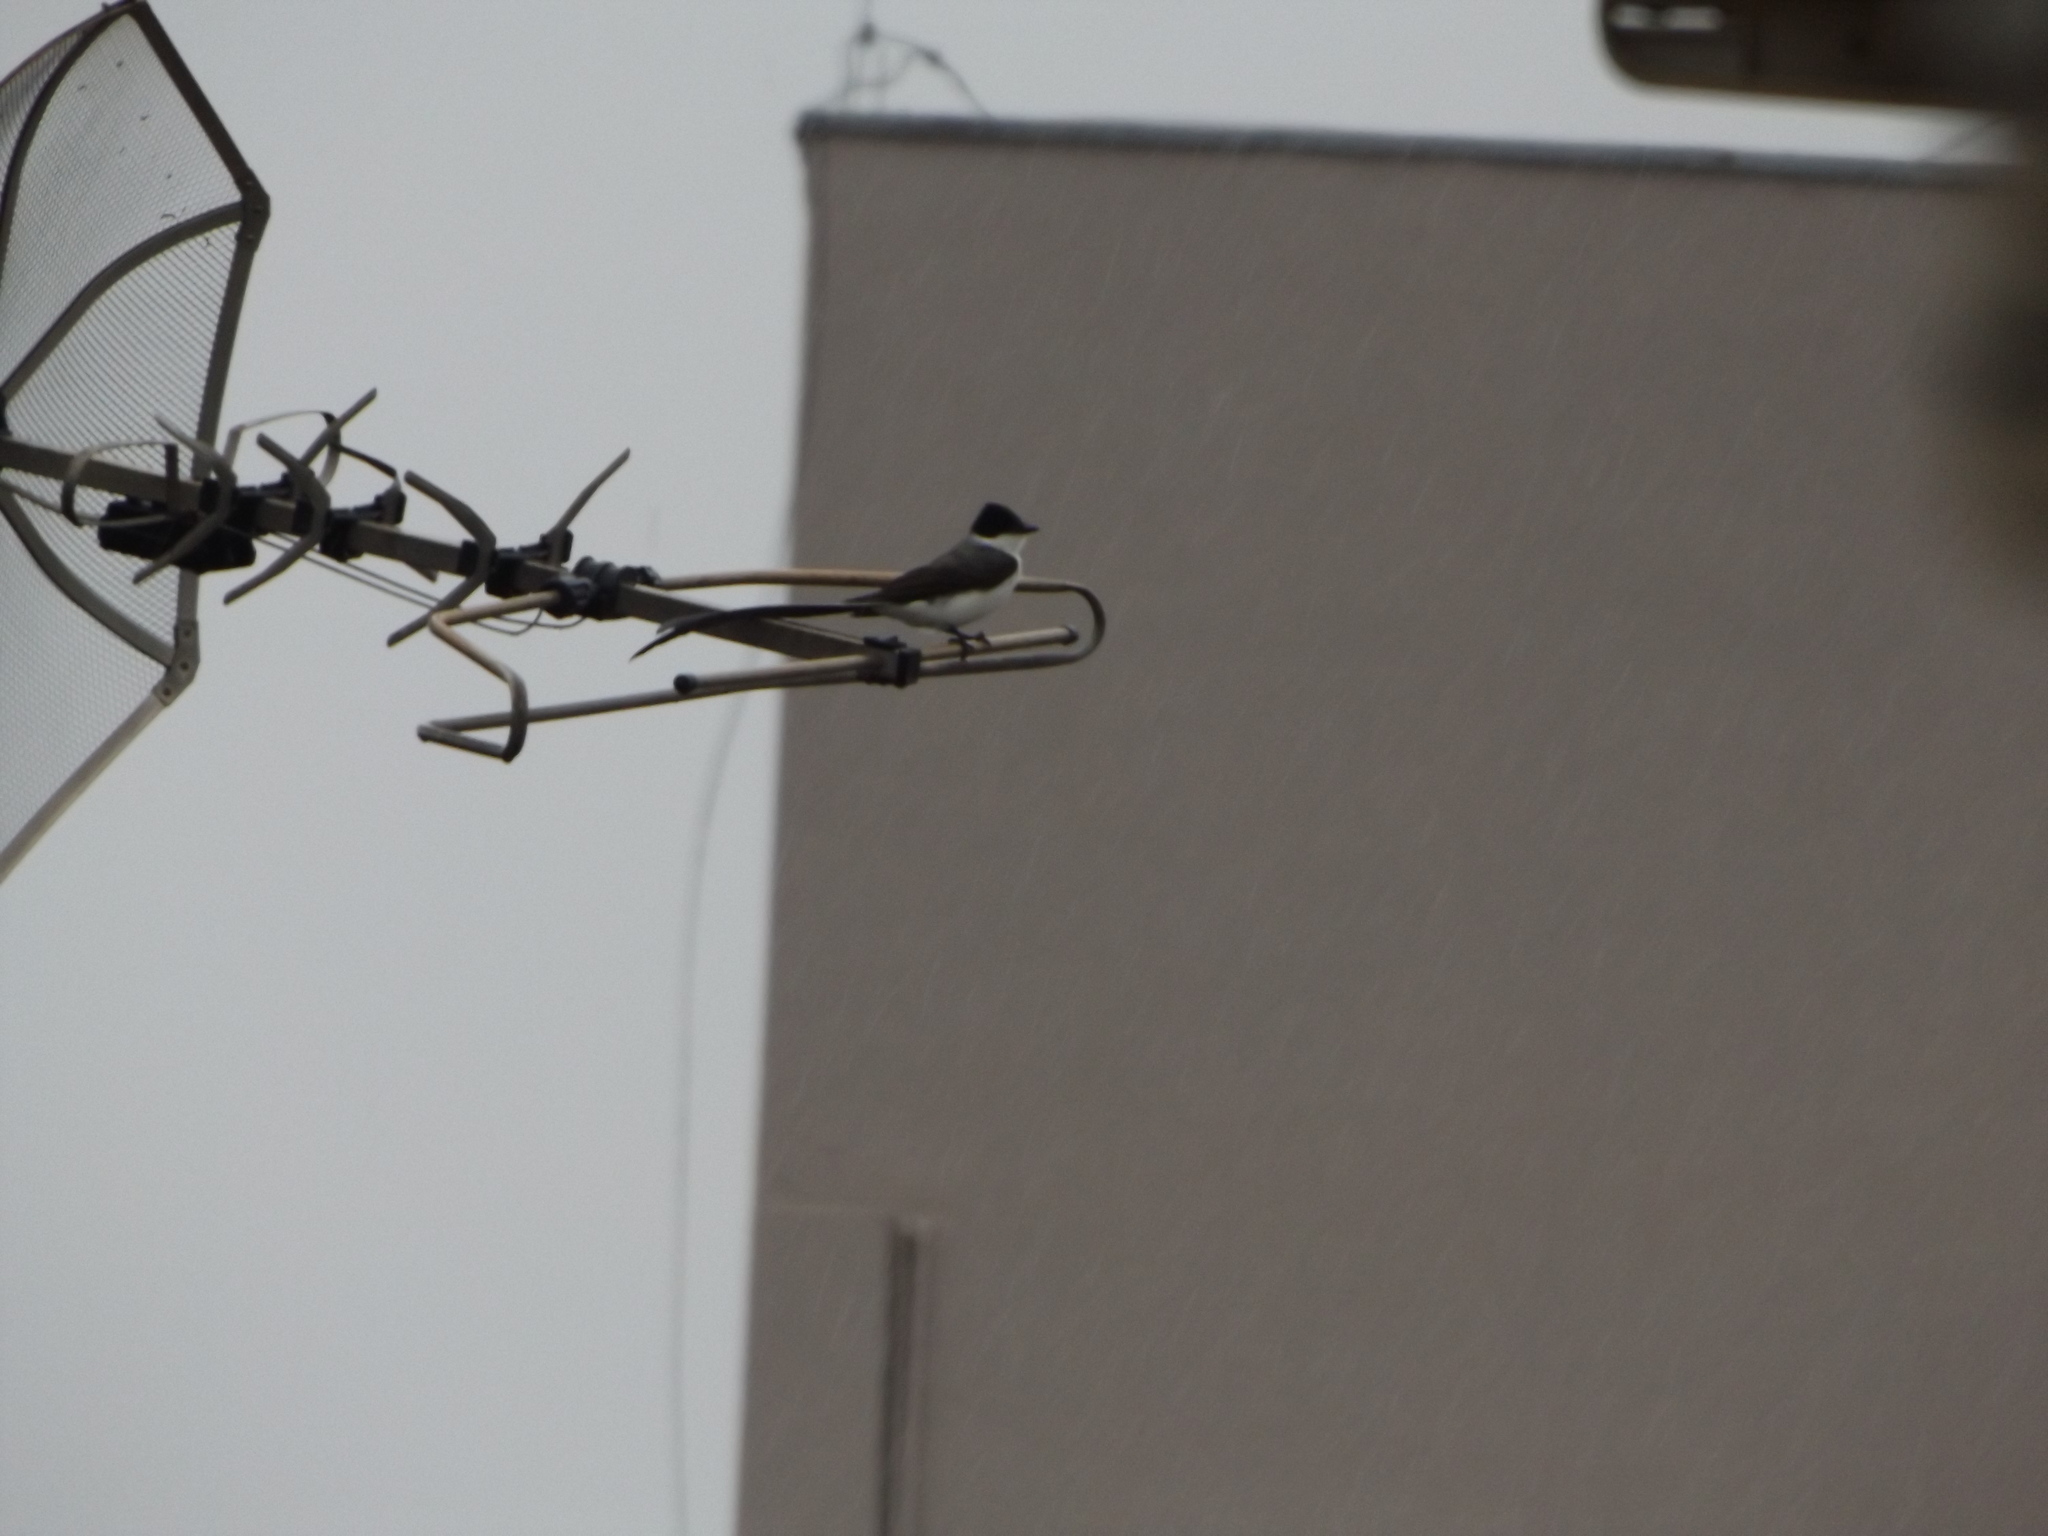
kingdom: Animalia
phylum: Chordata
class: Aves
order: Passeriformes
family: Tyrannidae
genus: Tyrannus
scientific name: Tyrannus savana
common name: Fork-tailed flycatcher
